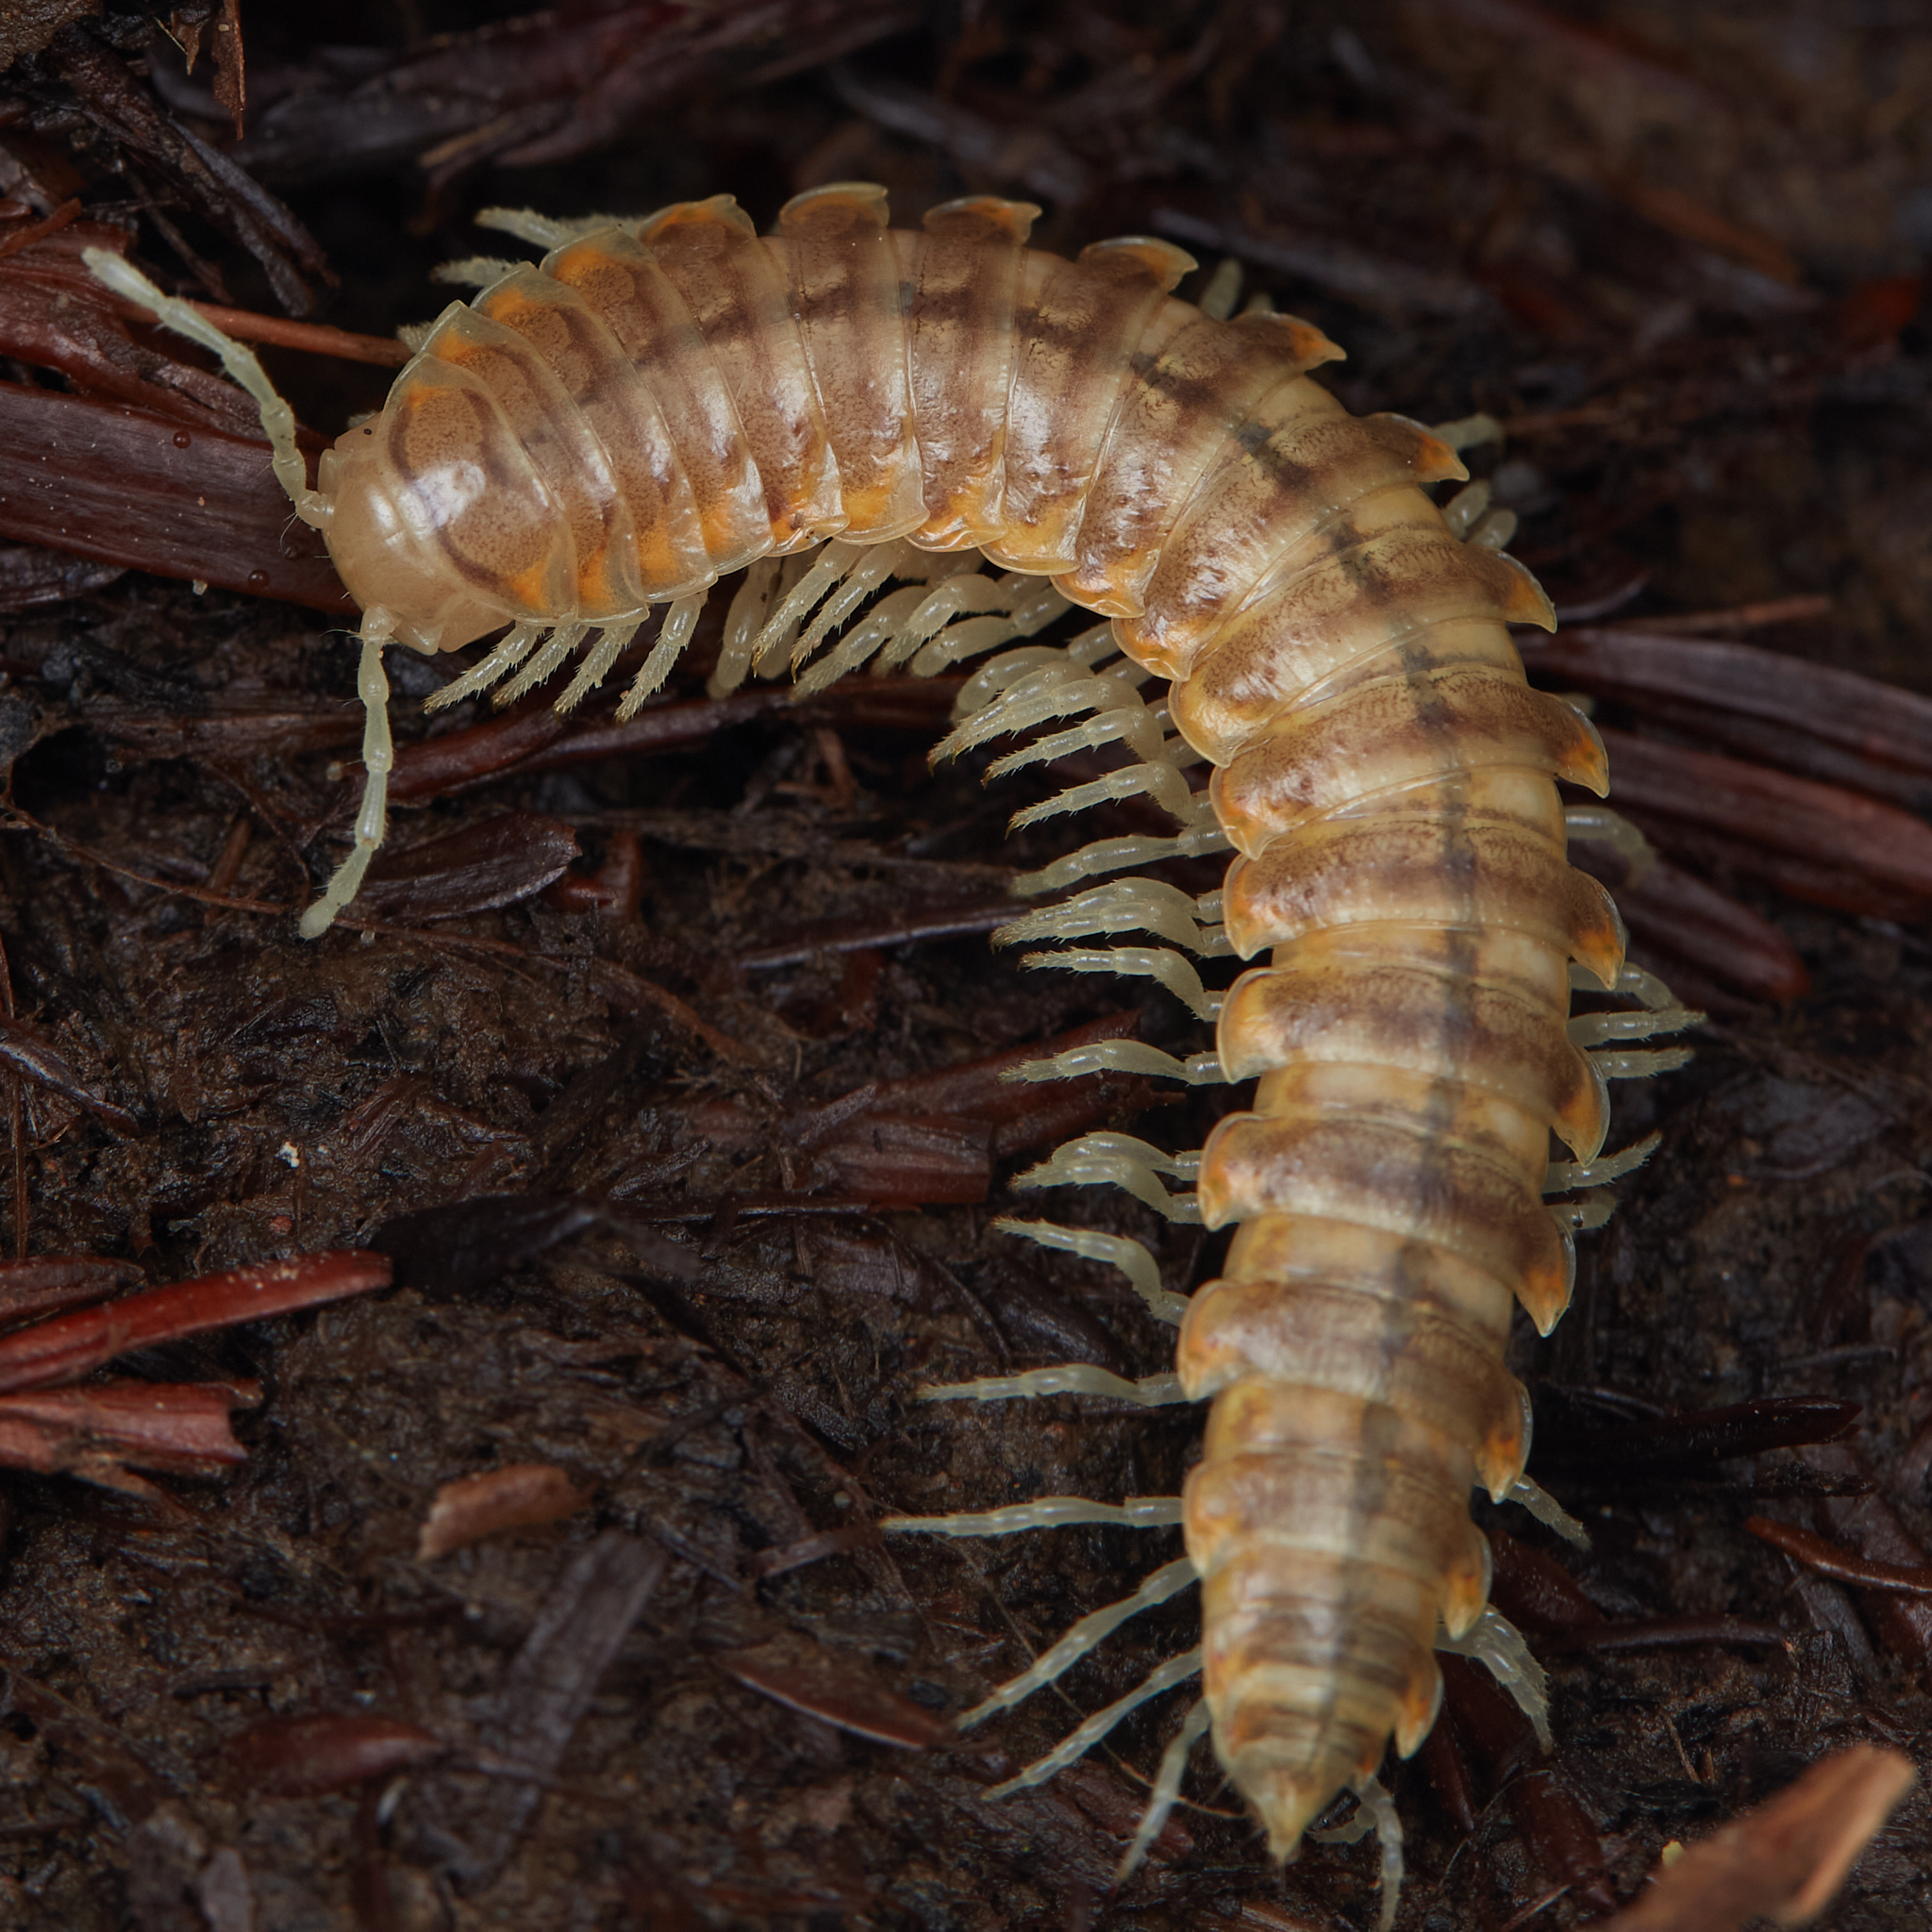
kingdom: Animalia
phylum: Arthropoda
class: Diplopoda
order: Polydesmida
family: Xystodesmidae
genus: Xystocheir
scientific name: Xystocheir dissecta
